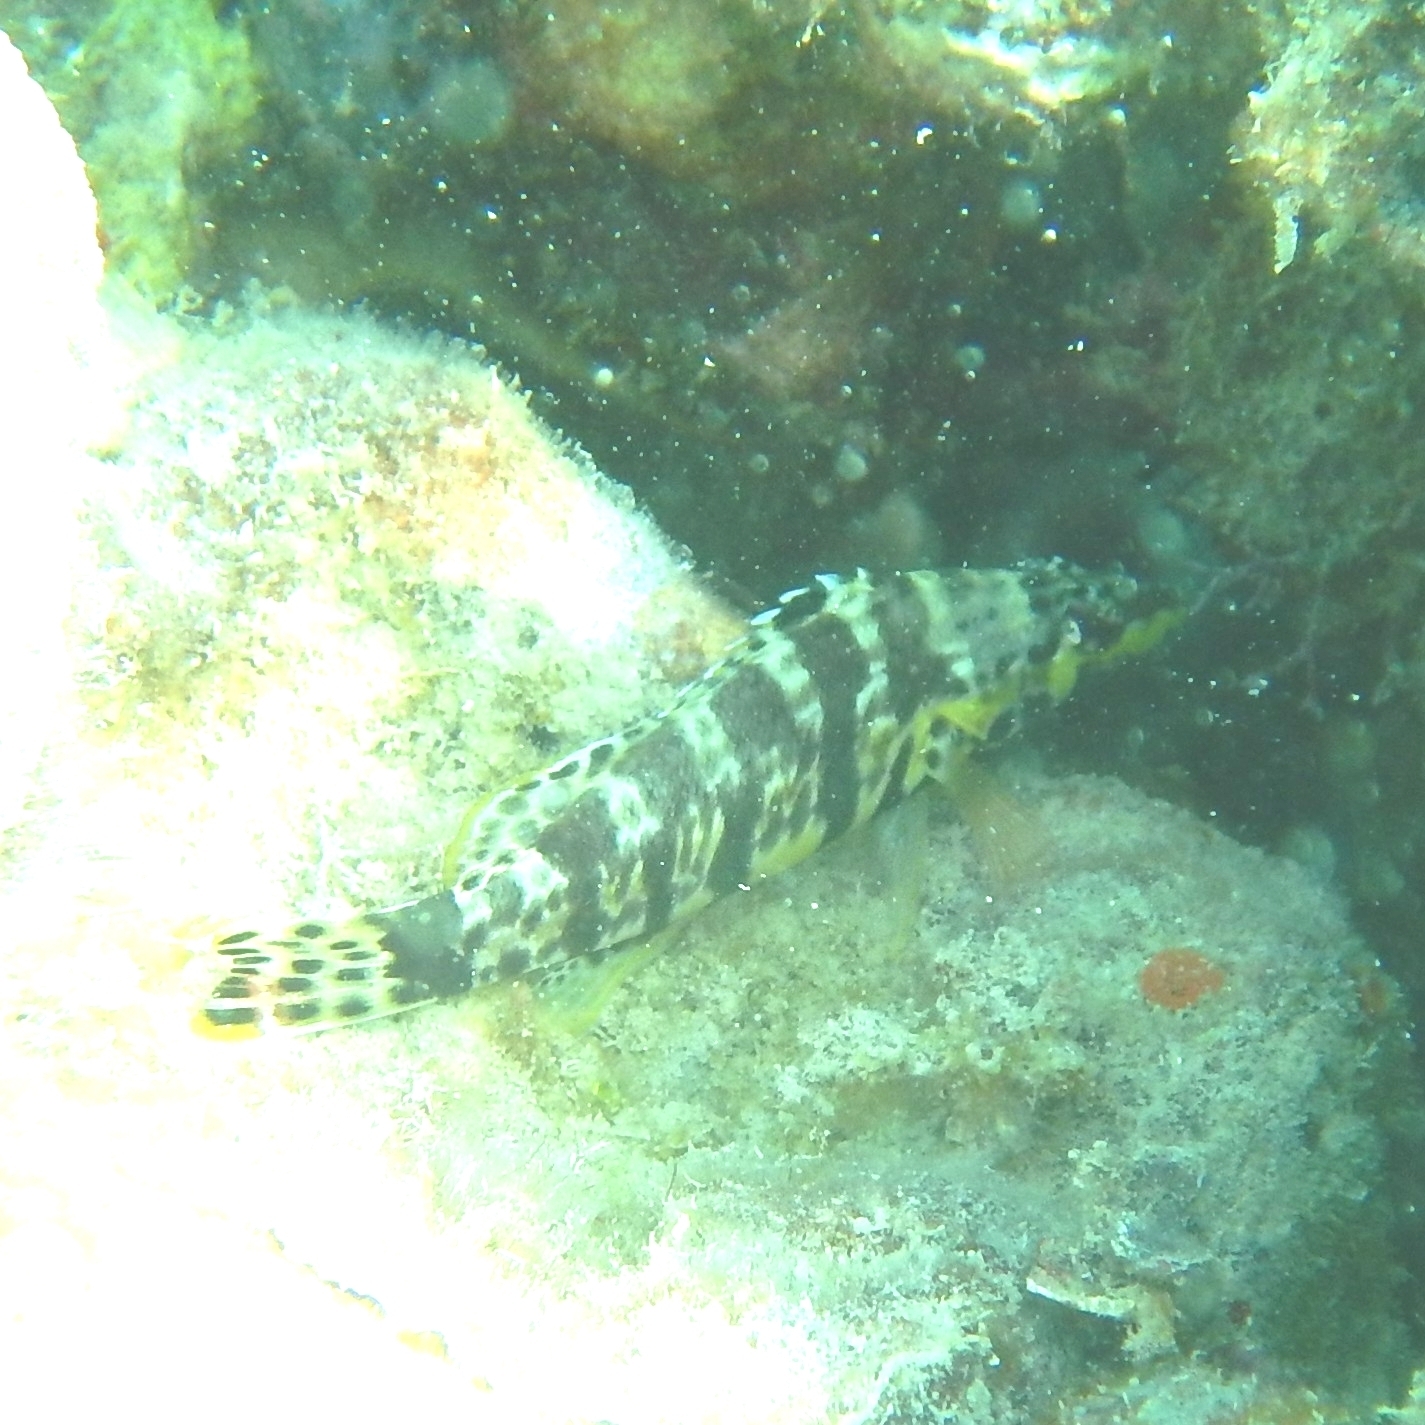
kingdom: Animalia
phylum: Chordata
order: Perciformes
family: Serranidae
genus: Serranus
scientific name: Serranus tigrinus
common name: Harlequin bass
